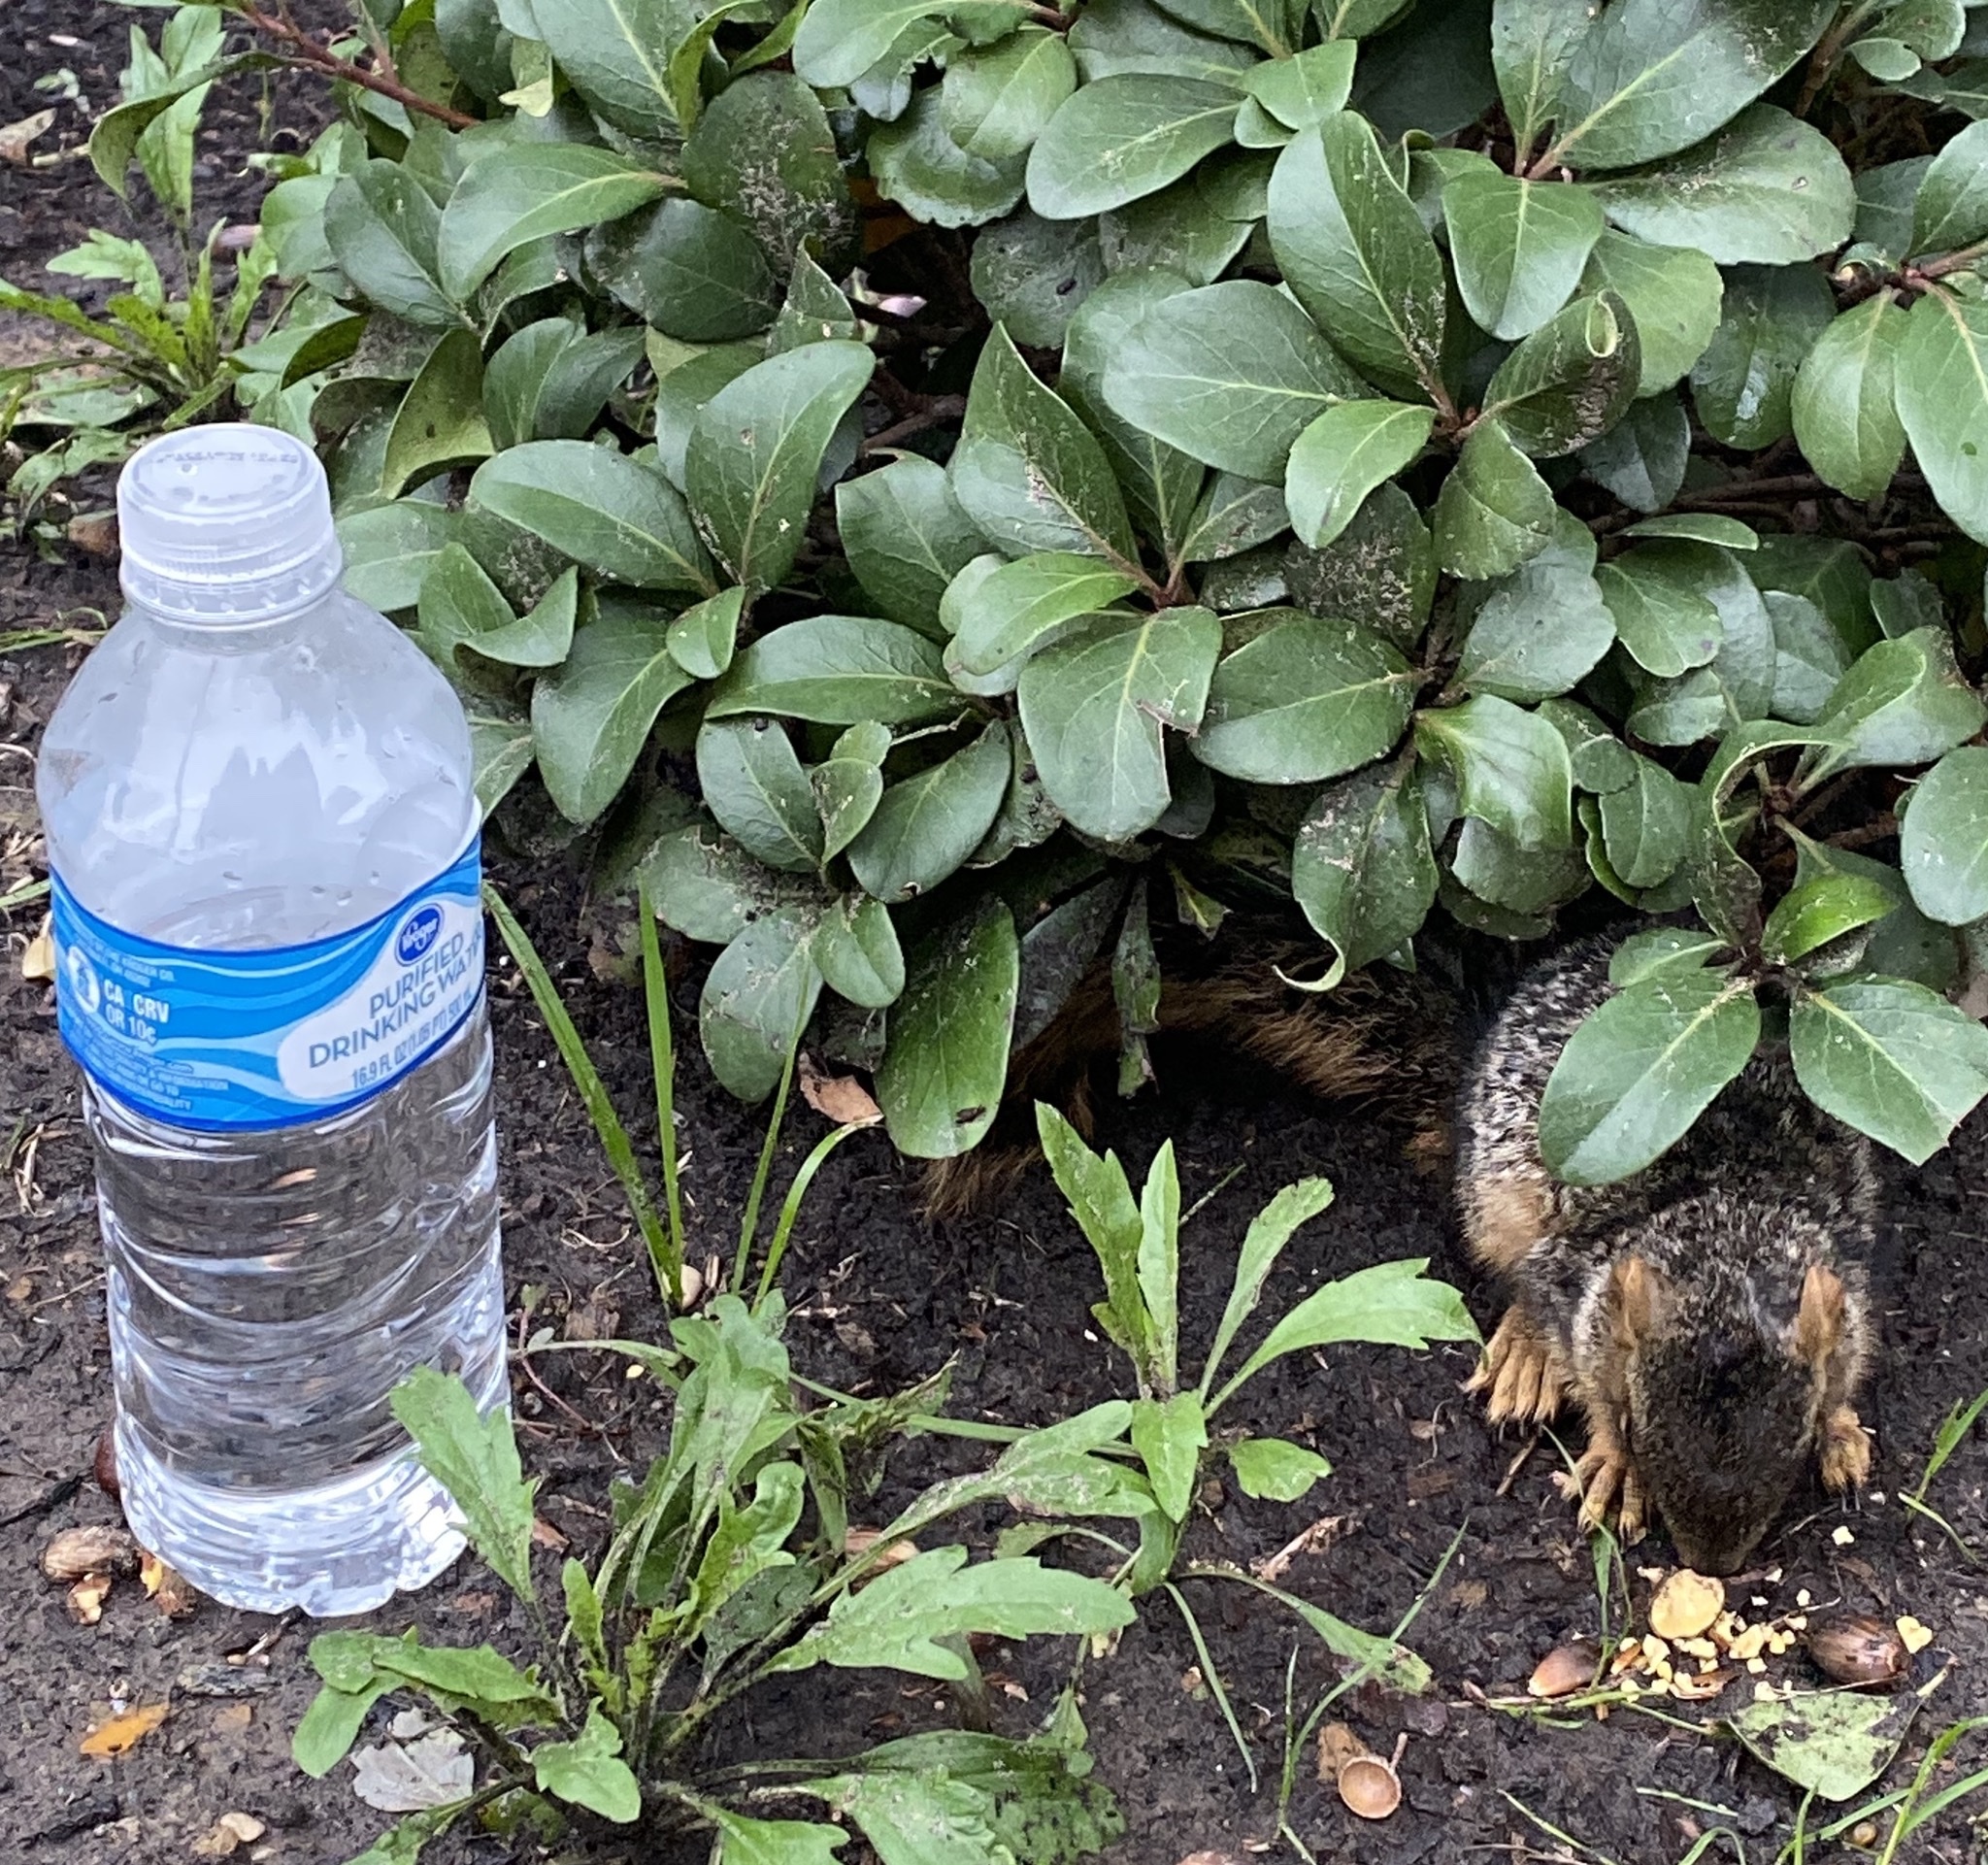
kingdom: Animalia
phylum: Chordata
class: Mammalia
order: Rodentia
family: Sciuridae
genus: Sciurus
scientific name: Sciurus niger
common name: Fox squirrel
